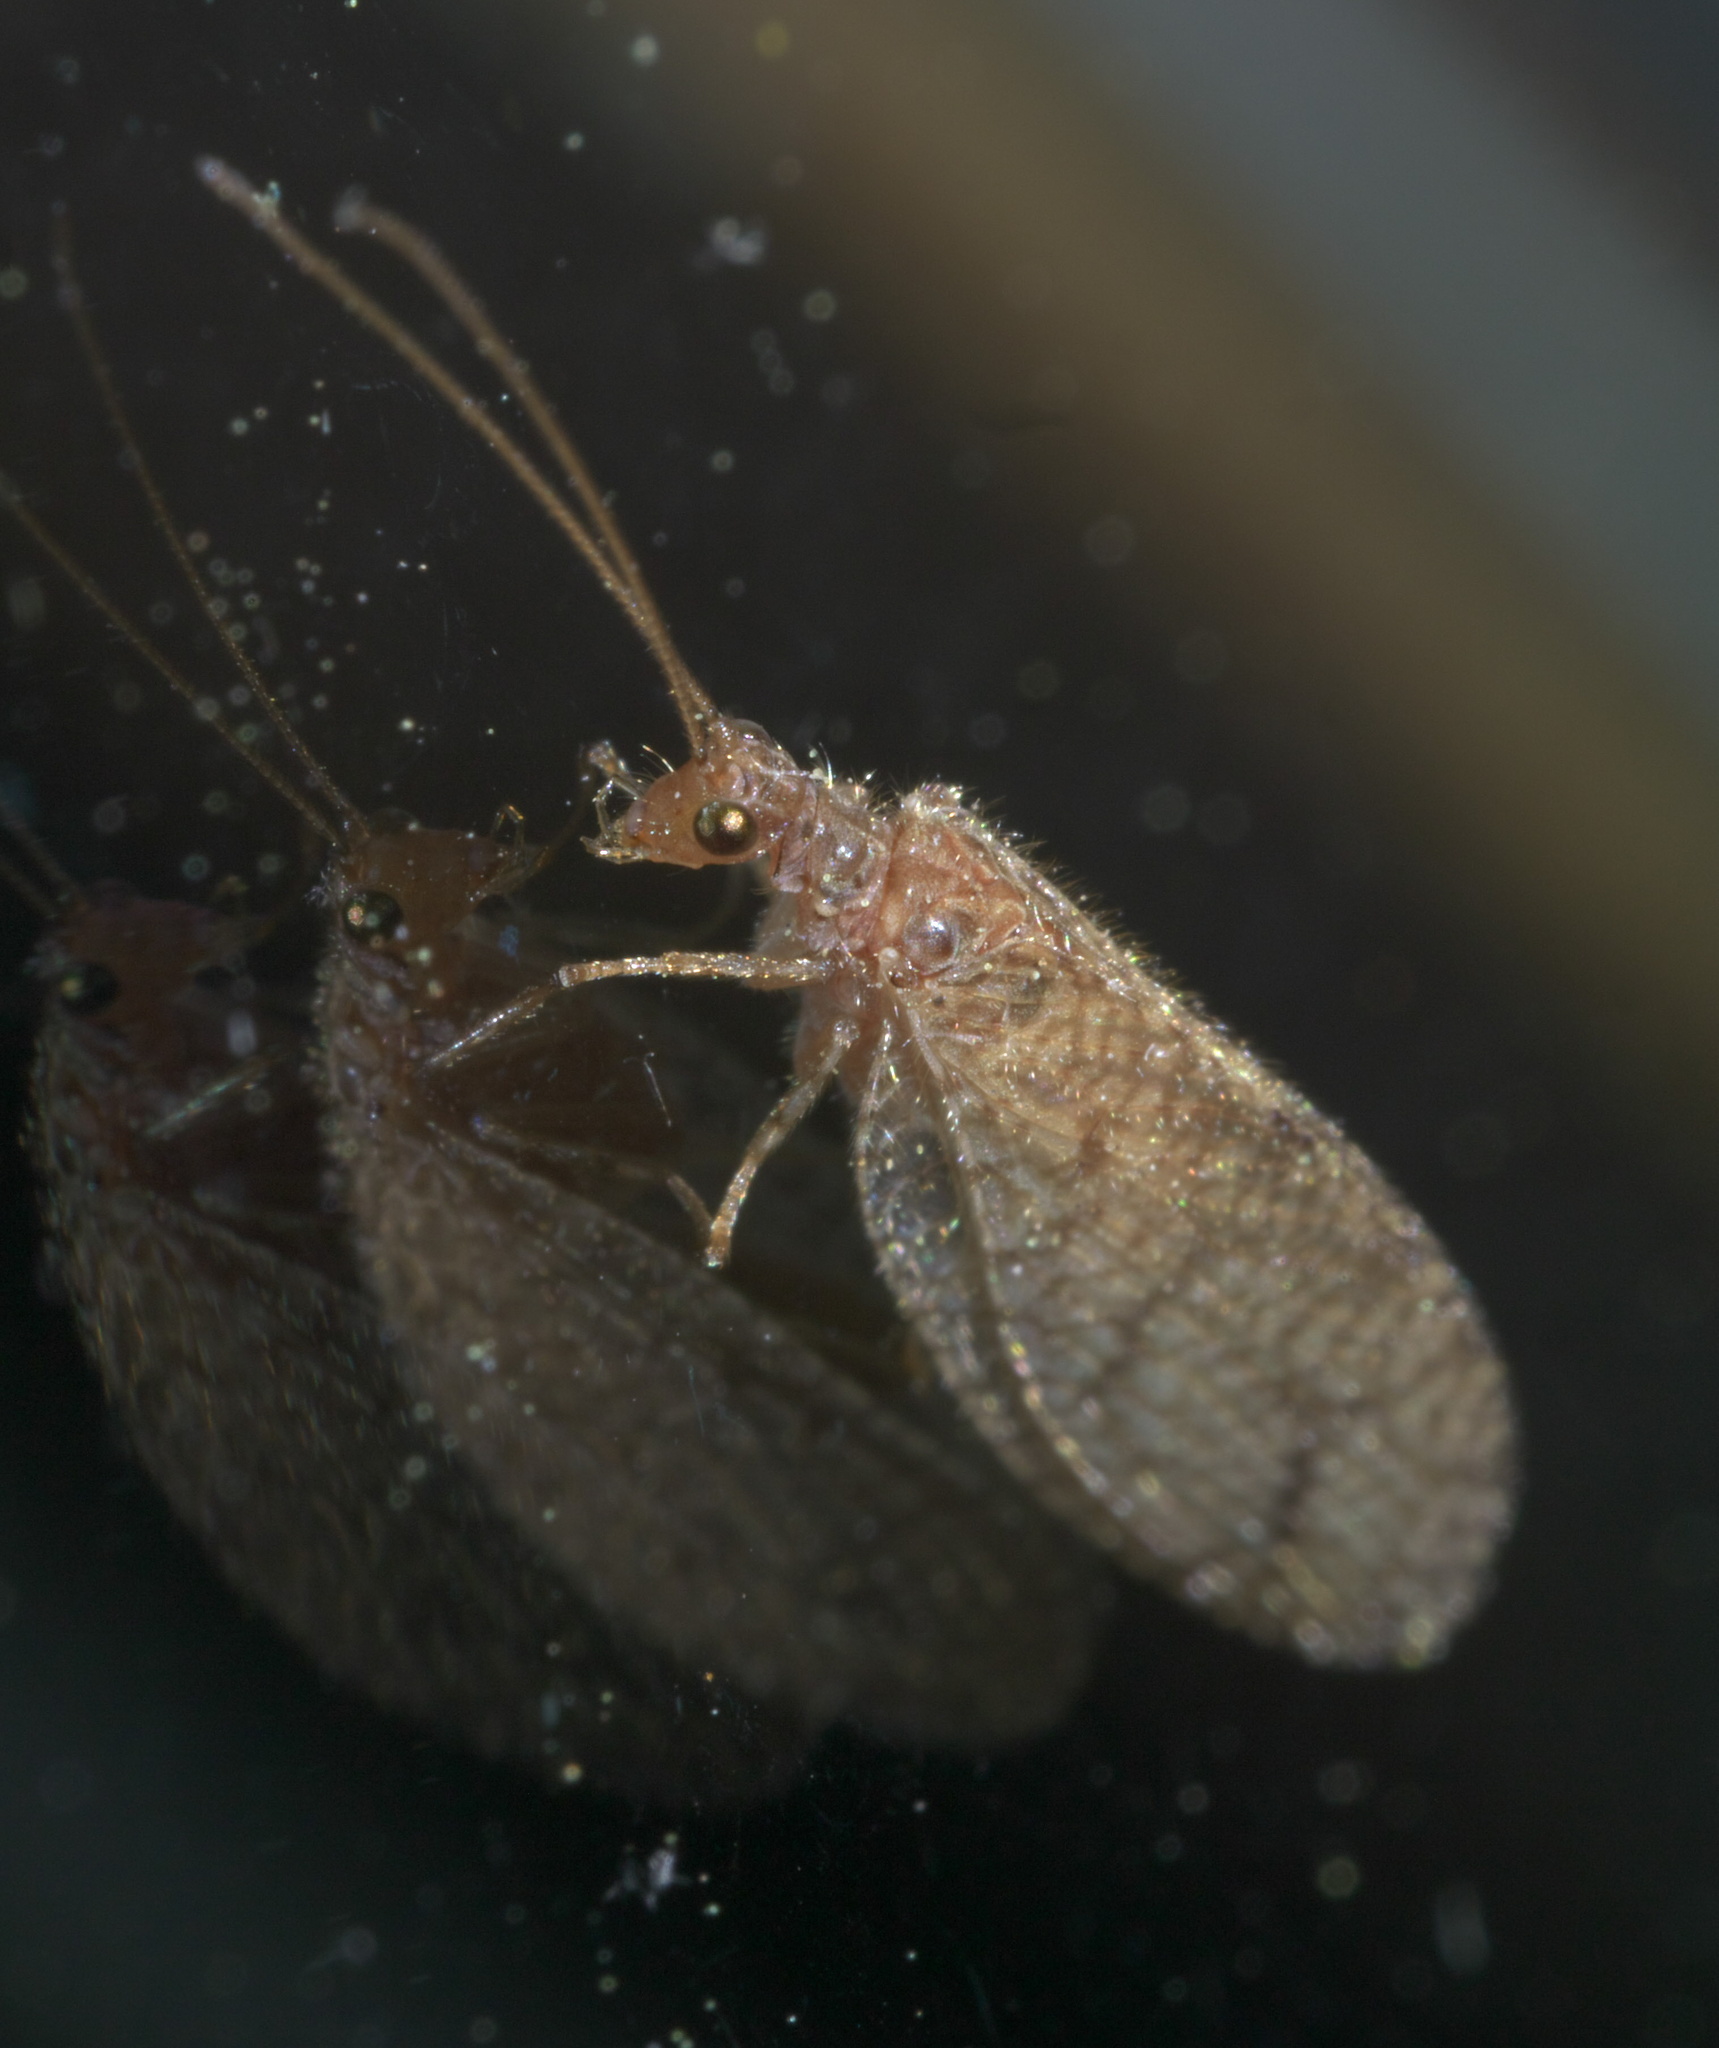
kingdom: Animalia
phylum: Arthropoda
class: Insecta
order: Neuroptera
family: Hemerobiidae
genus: Micromus
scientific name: Micromus posticus
